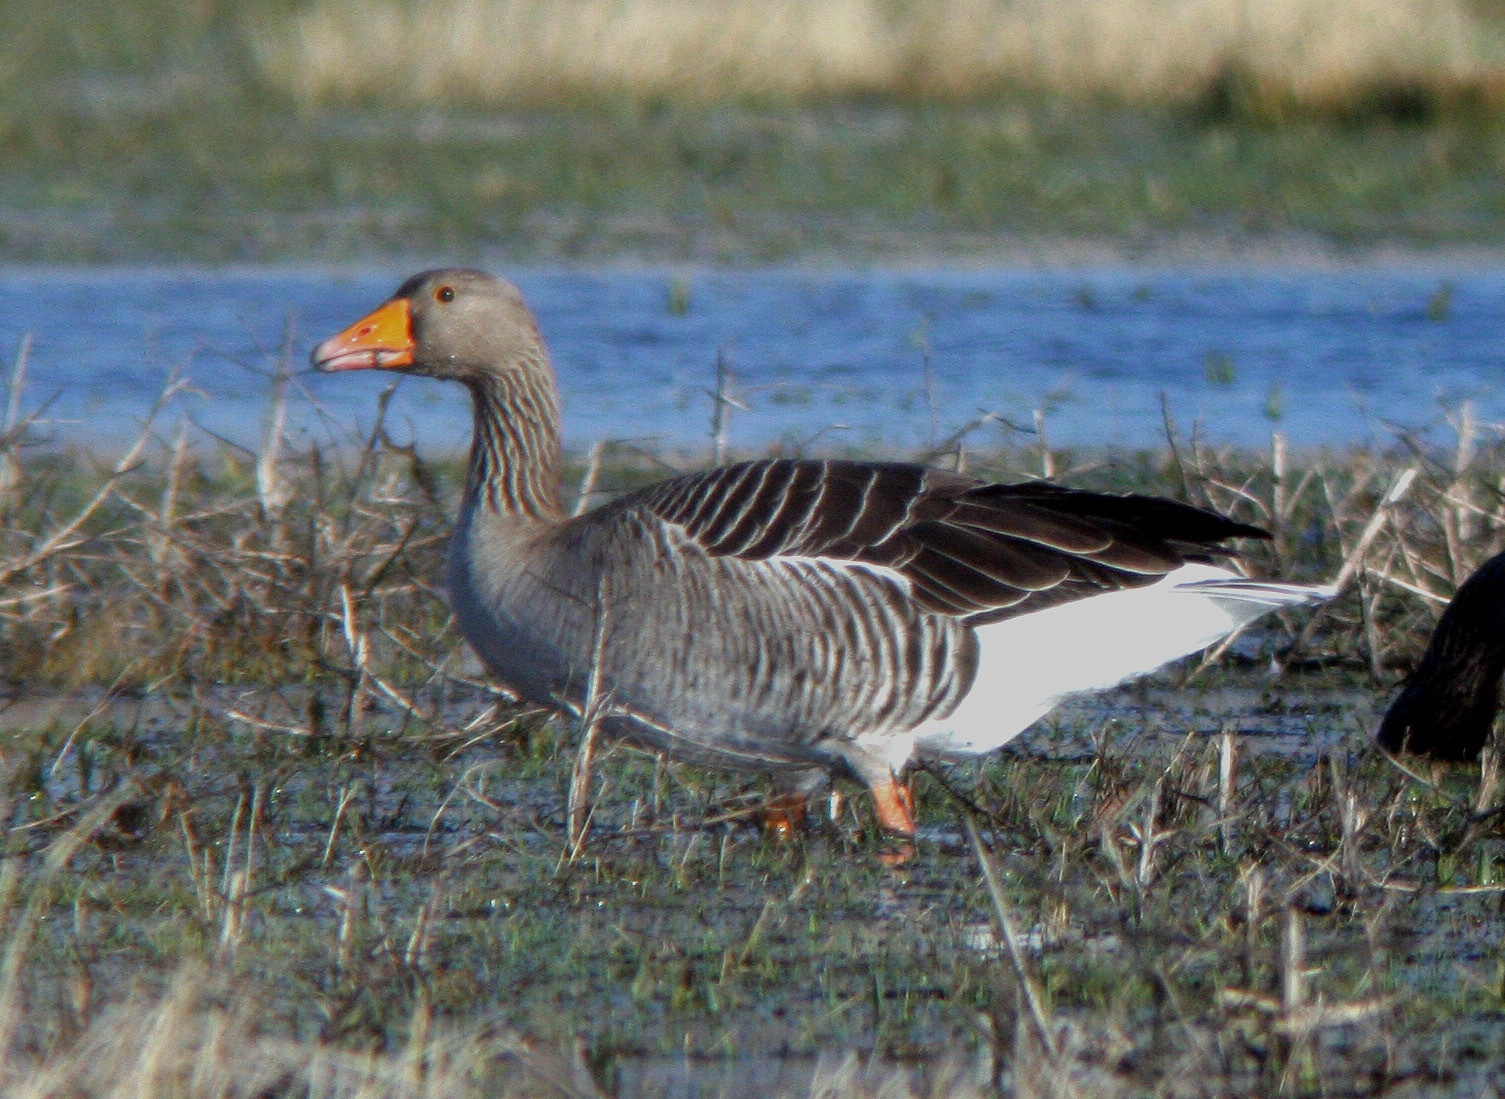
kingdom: Animalia
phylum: Chordata
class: Aves
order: Anseriformes
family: Anatidae
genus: Anser
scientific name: Anser anser
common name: Greylag goose
